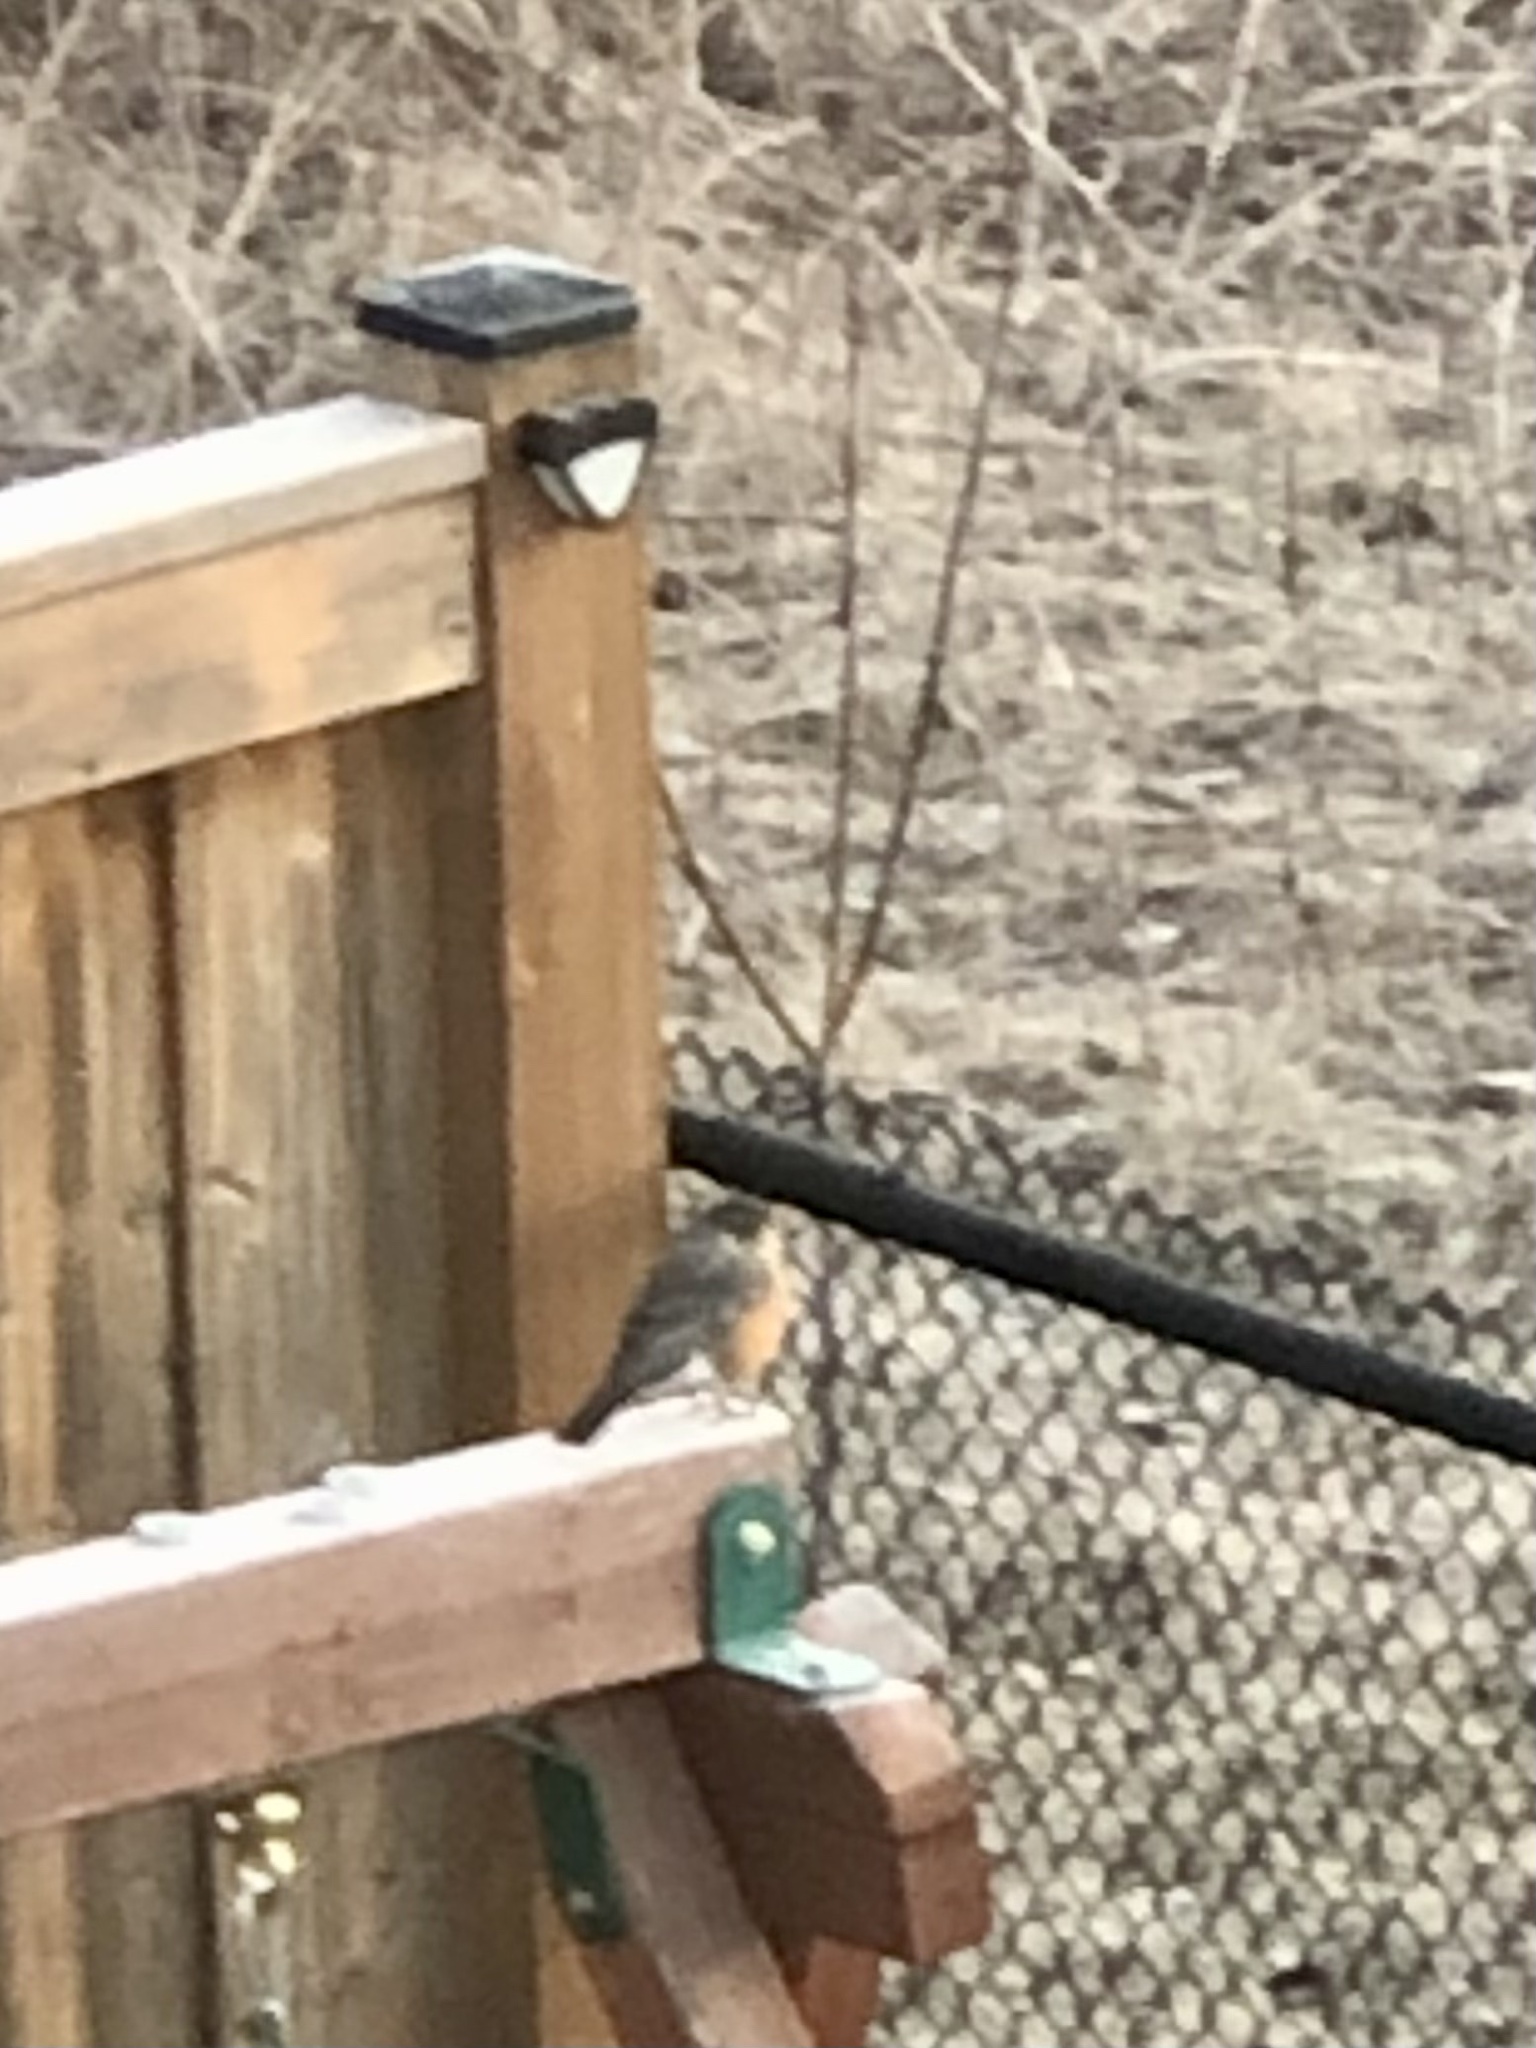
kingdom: Animalia
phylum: Chordata
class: Aves
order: Passeriformes
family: Turdidae
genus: Turdus
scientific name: Turdus migratorius
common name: American robin
